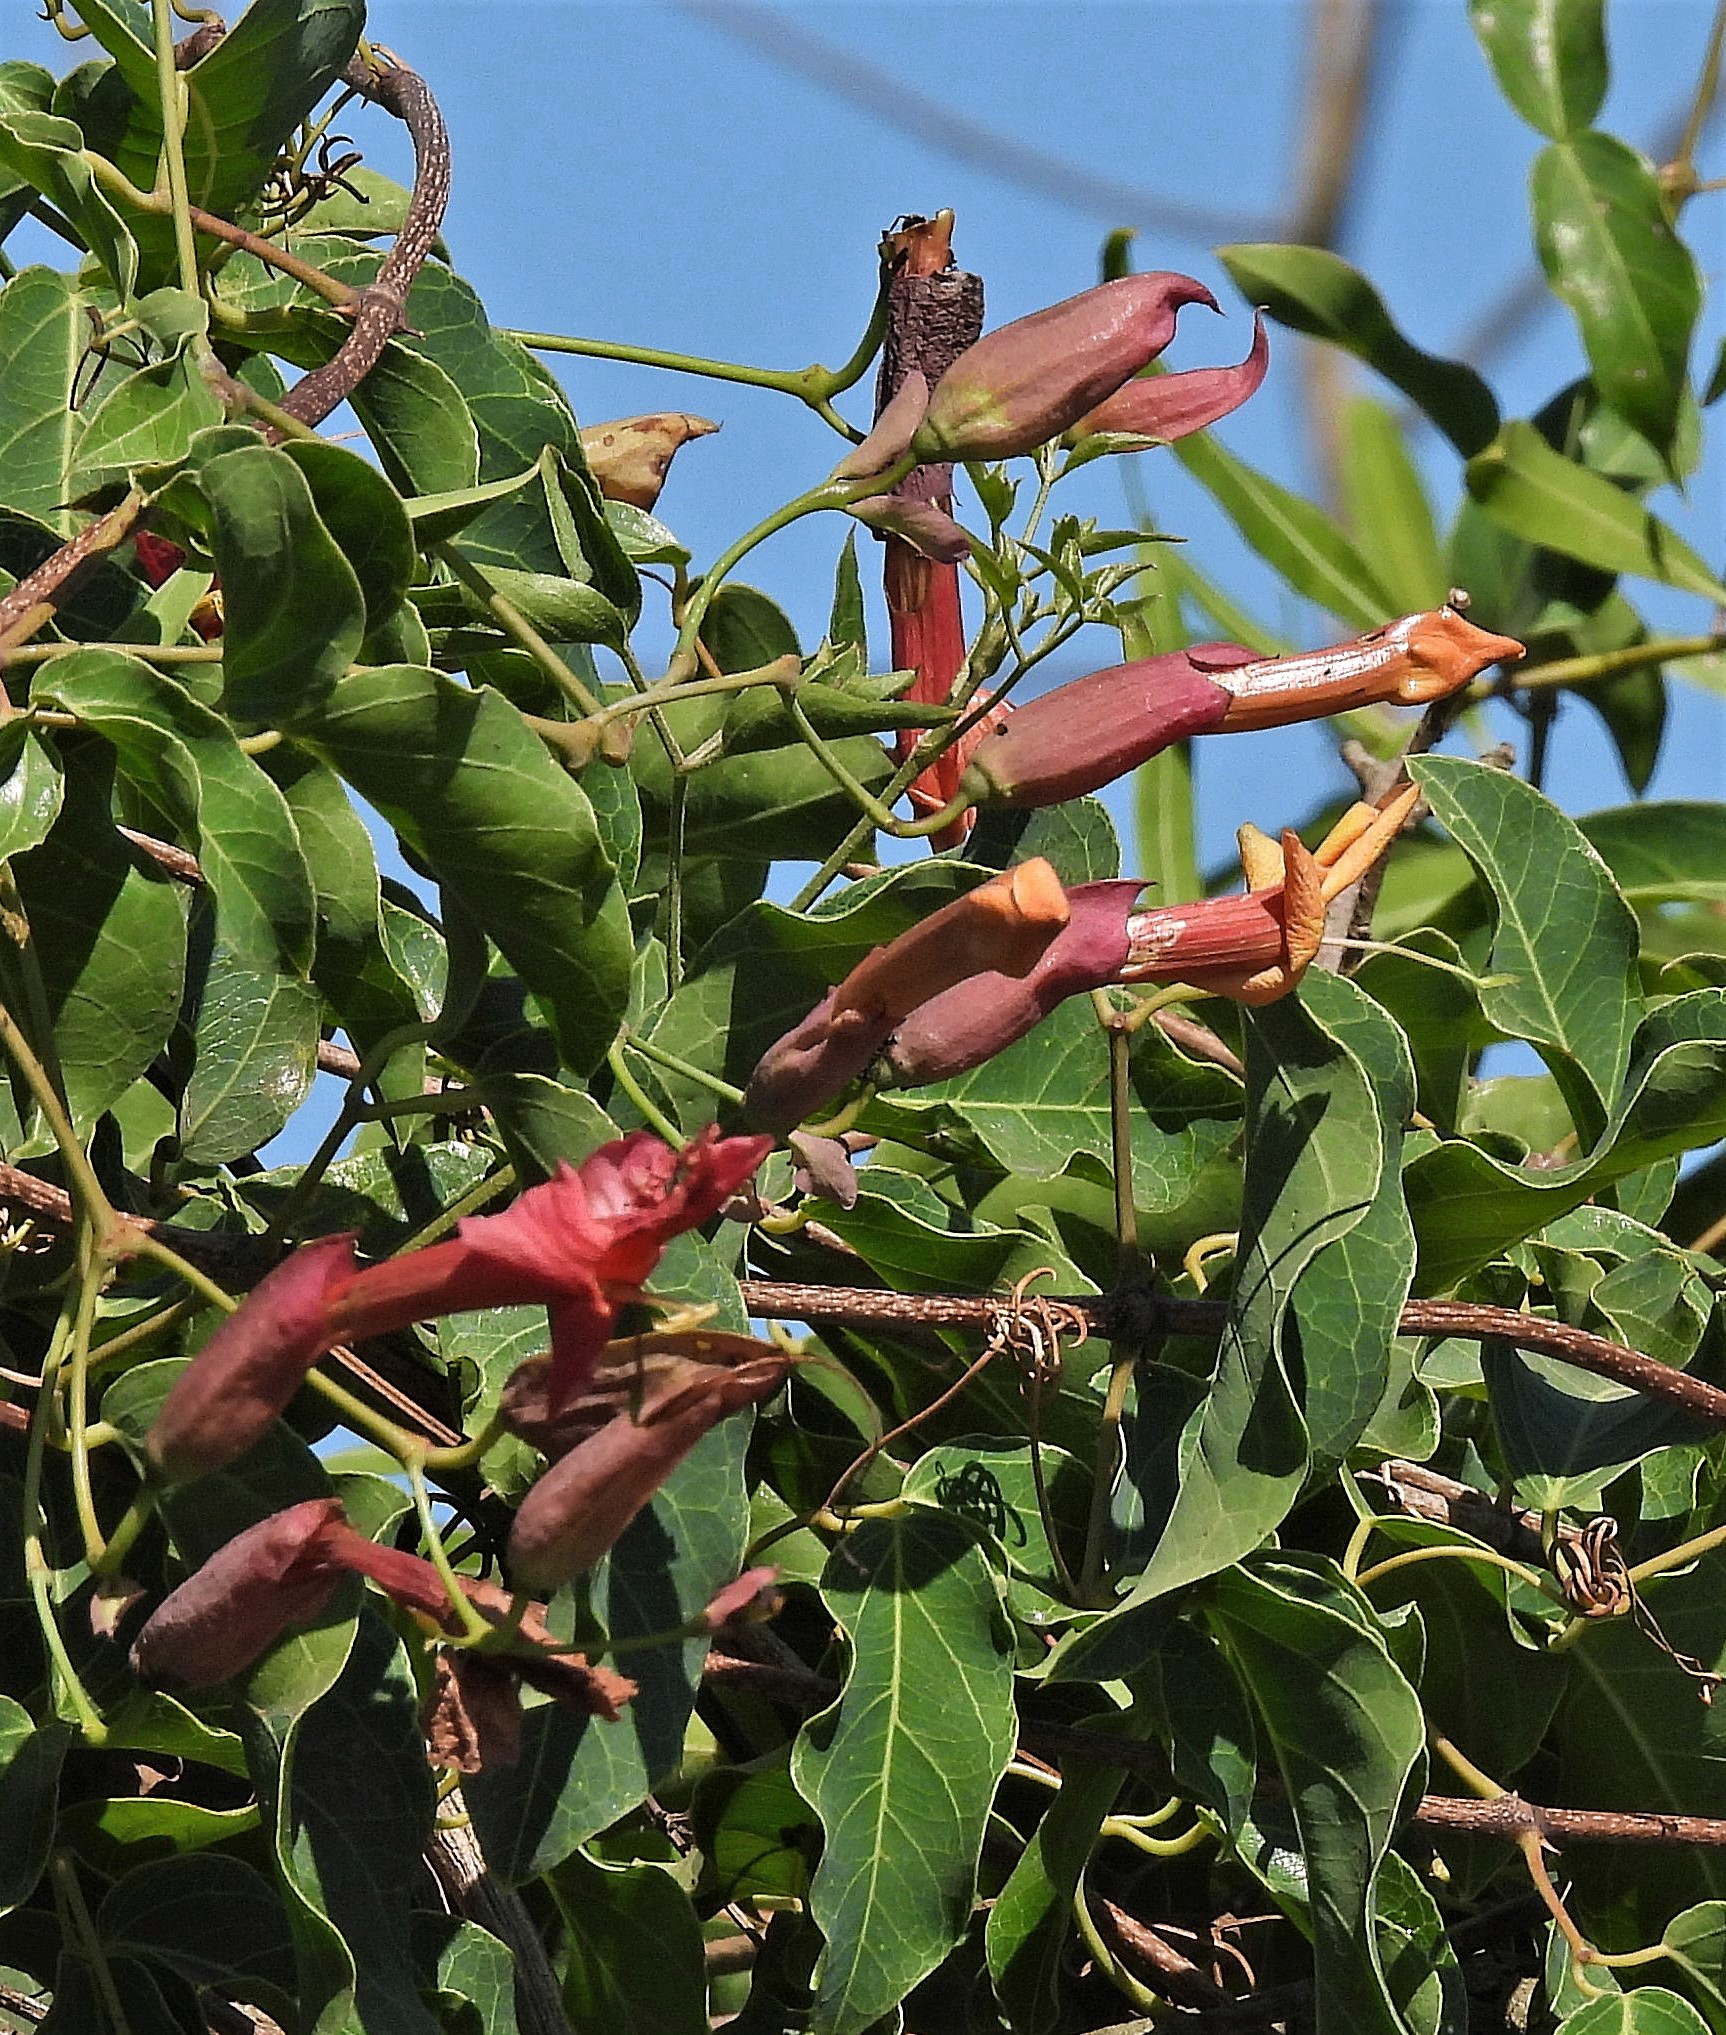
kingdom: Plantae
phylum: Tracheophyta
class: Magnoliopsida
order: Lamiales
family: Bignoniaceae
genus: Dolichandra
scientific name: Dolichandra cynanchoides
